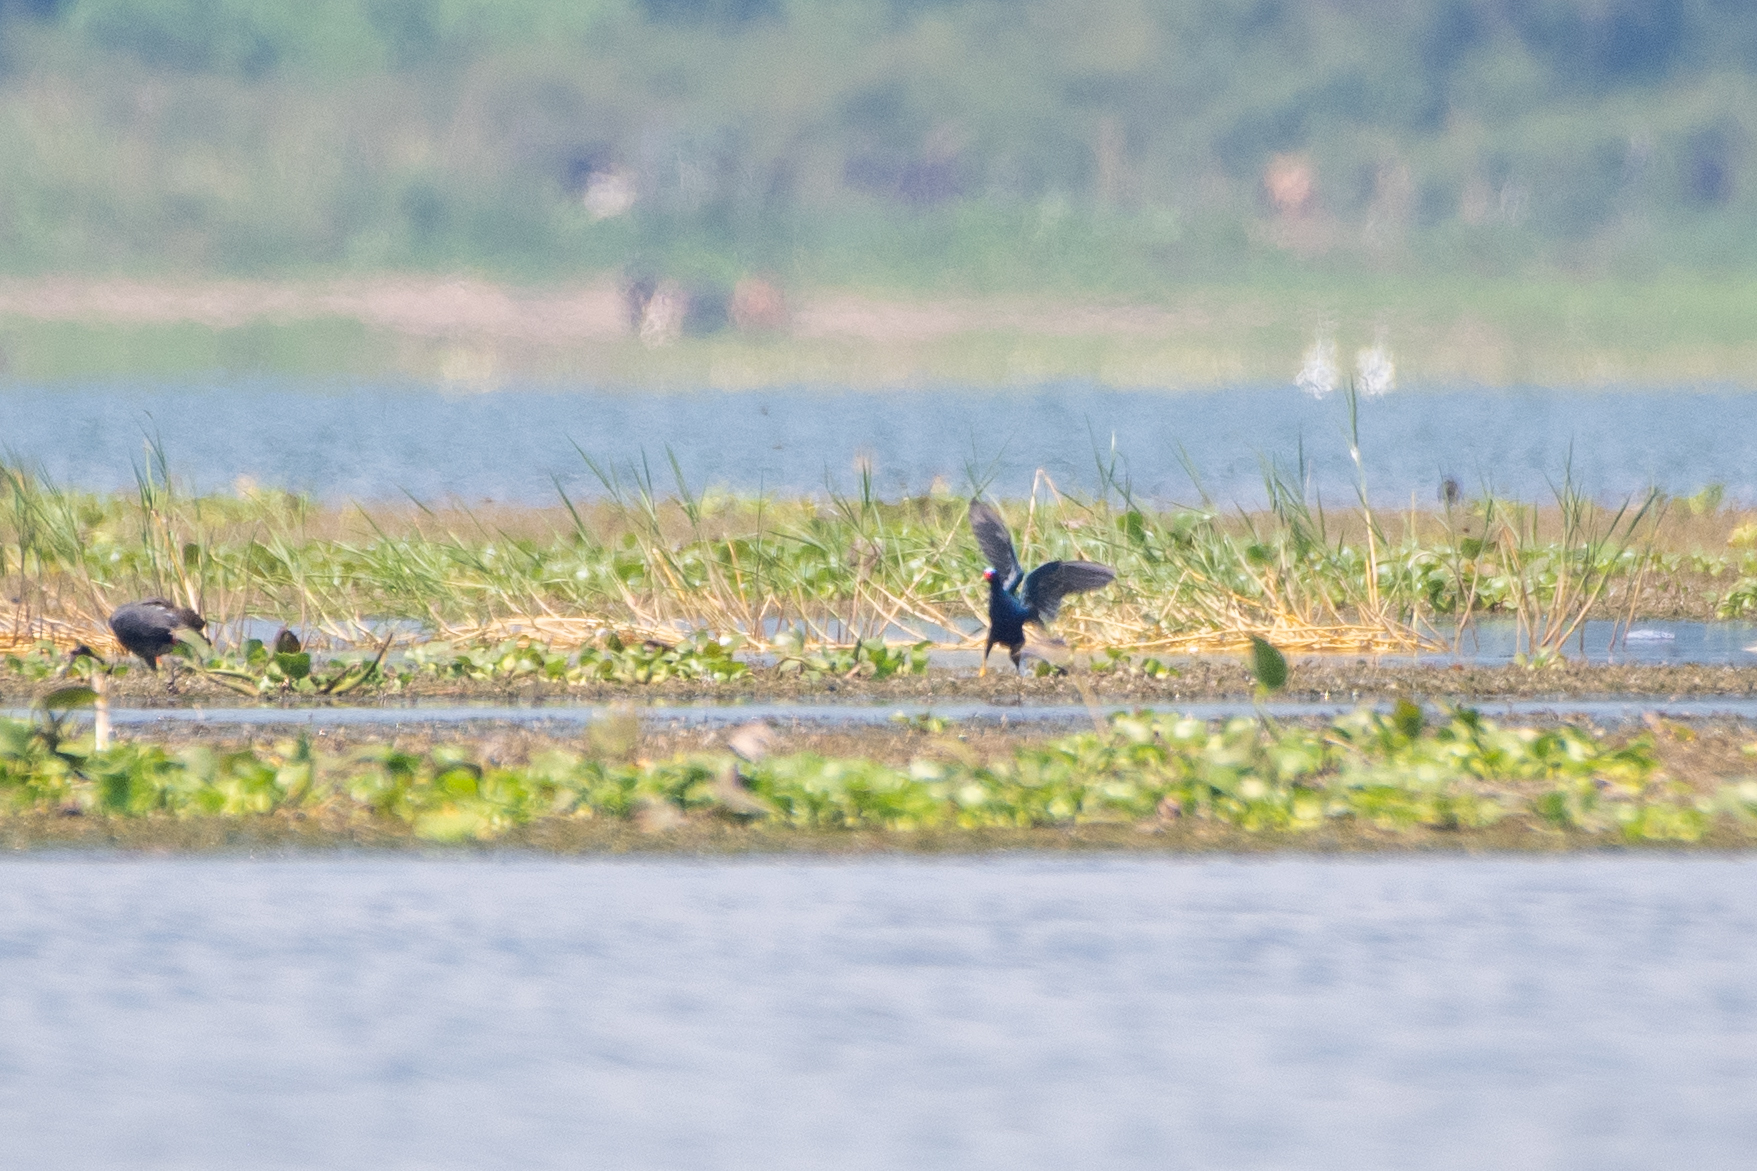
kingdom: Animalia
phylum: Chordata
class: Aves
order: Gruiformes
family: Rallidae
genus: Porphyrio
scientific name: Porphyrio martinica
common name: Purple gallinule
